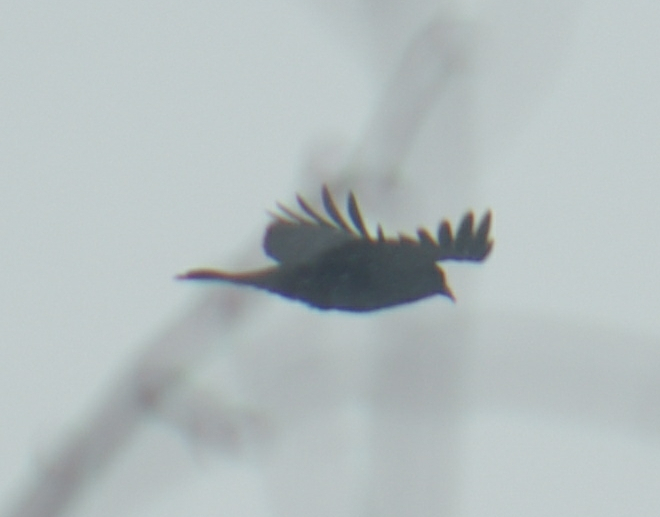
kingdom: Animalia
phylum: Chordata
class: Aves
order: Passeriformes
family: Corvidae
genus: Corvus
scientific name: Corvus brachyrhynchos
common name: American crow
